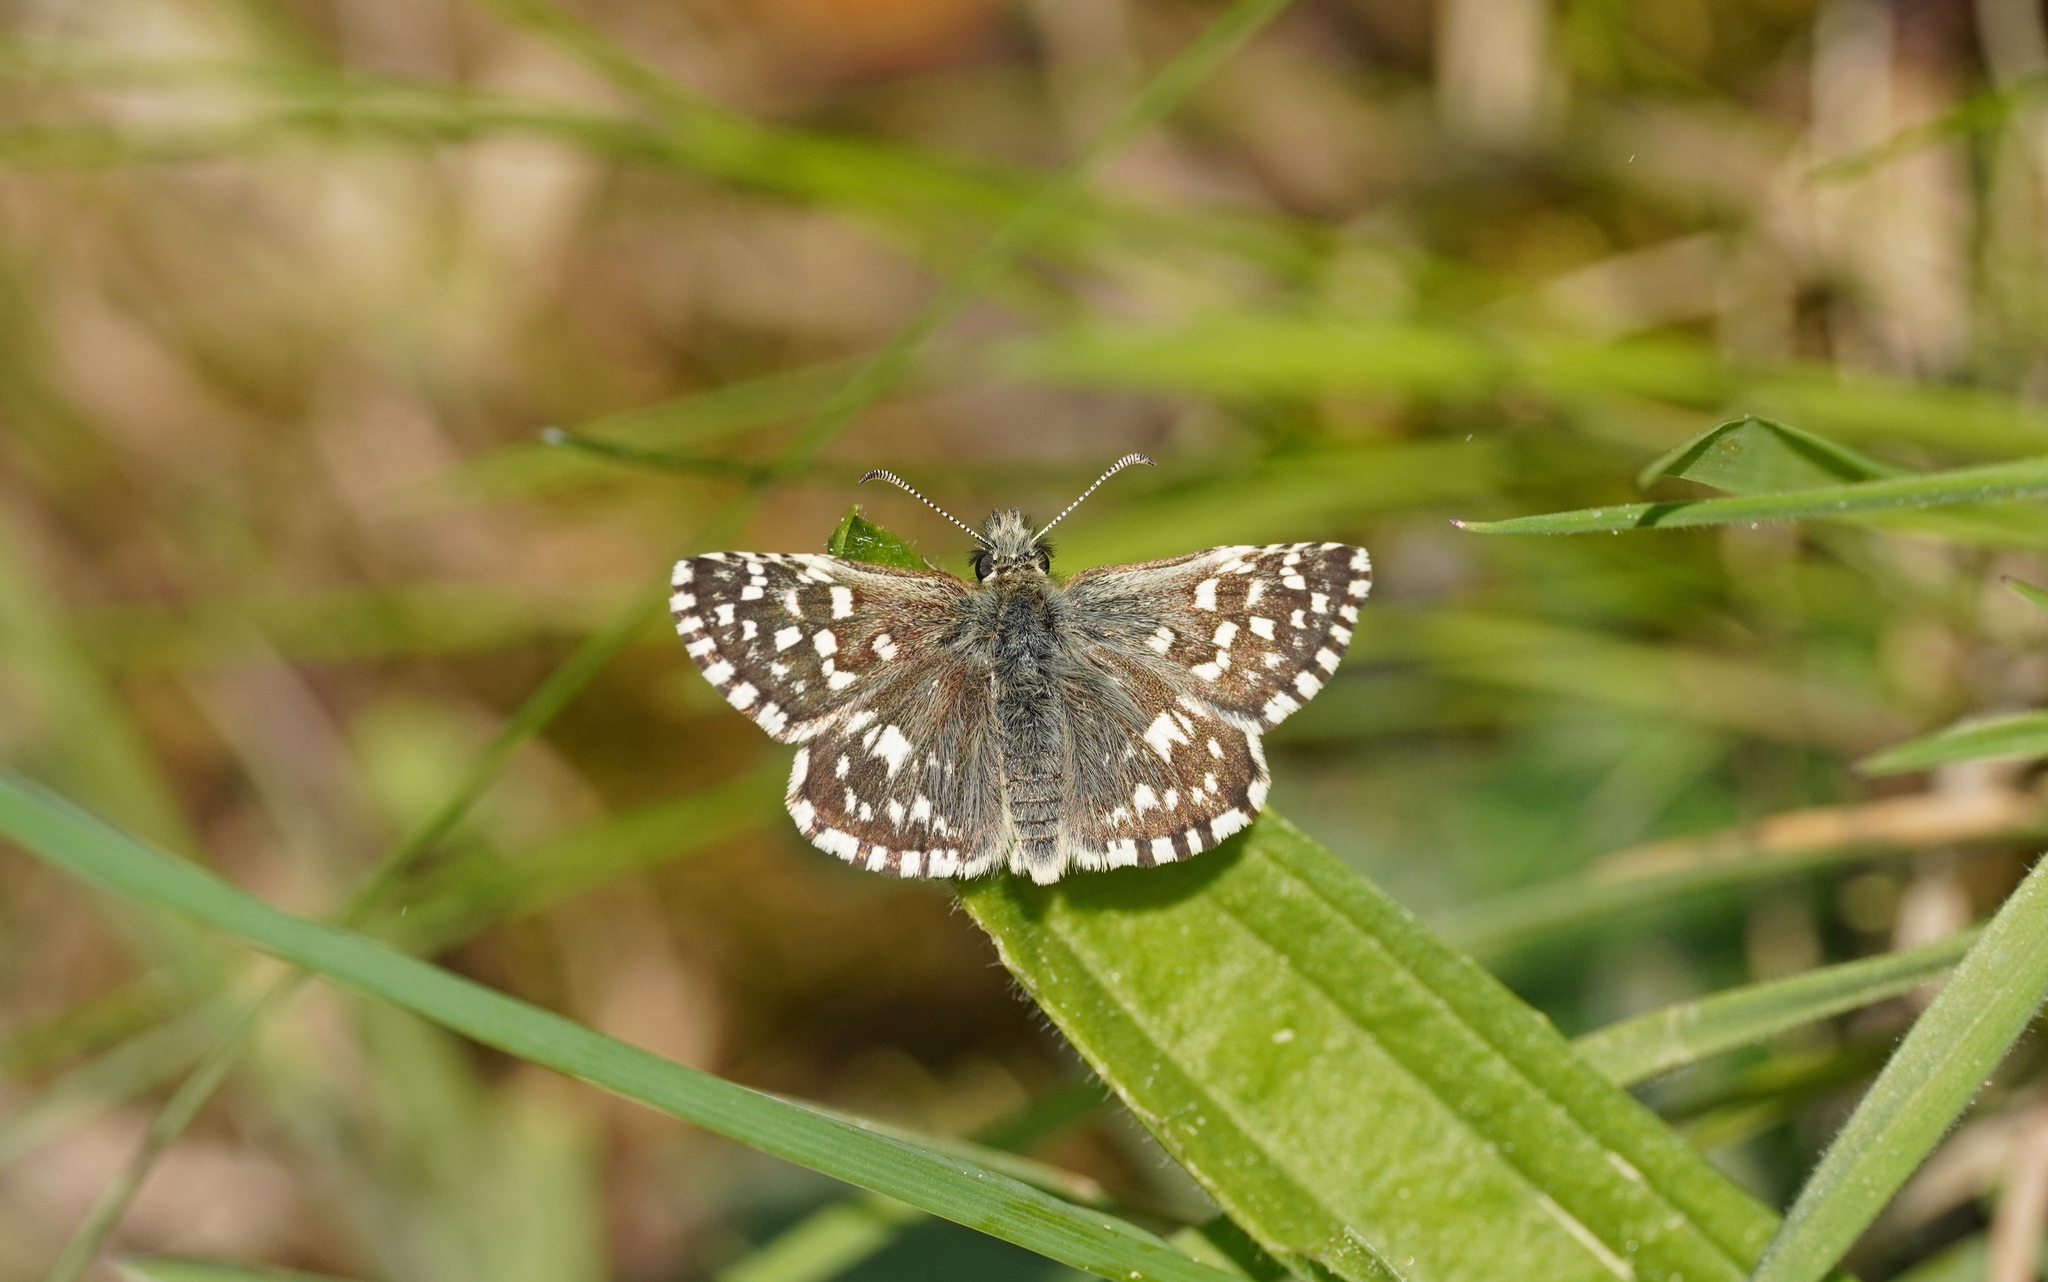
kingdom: Animalia
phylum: Arthropoda
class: Insecta
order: Lepidoptera
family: Hesperiidae
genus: Pyrgus
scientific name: Pyrgus malvae
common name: Grizzled skipper
